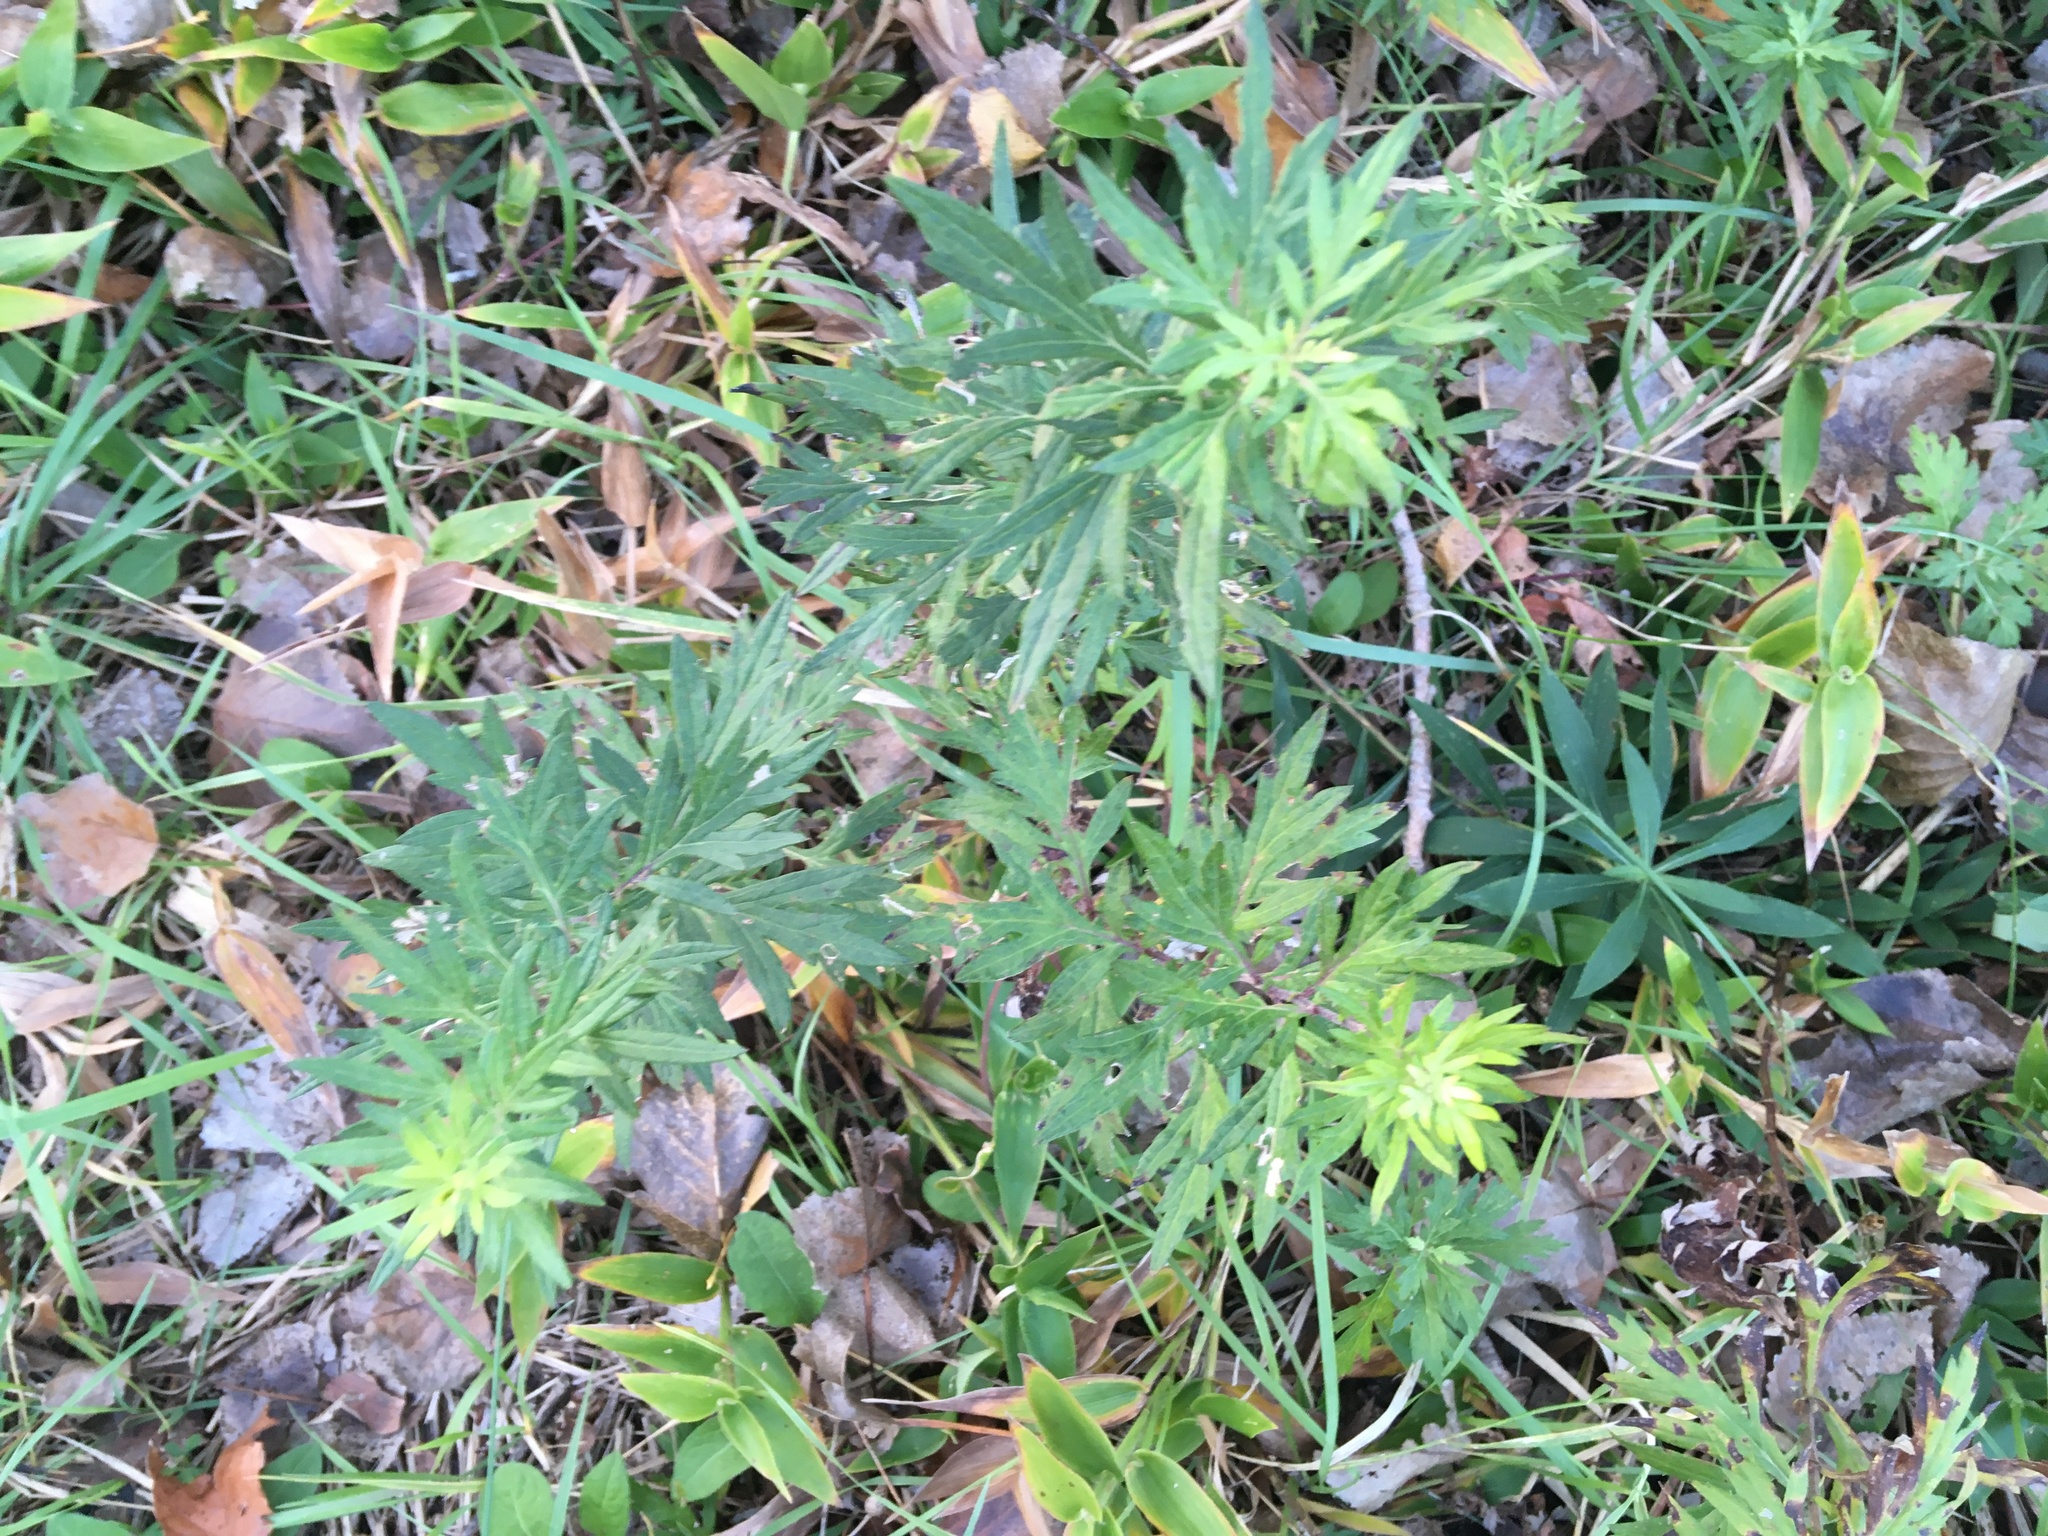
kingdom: Plantae
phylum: Tracheophyta
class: Magnoliopsida
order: Asterales
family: Asteraceae
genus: Artemisia
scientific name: Artemisia vulgaris
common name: Mugwort
